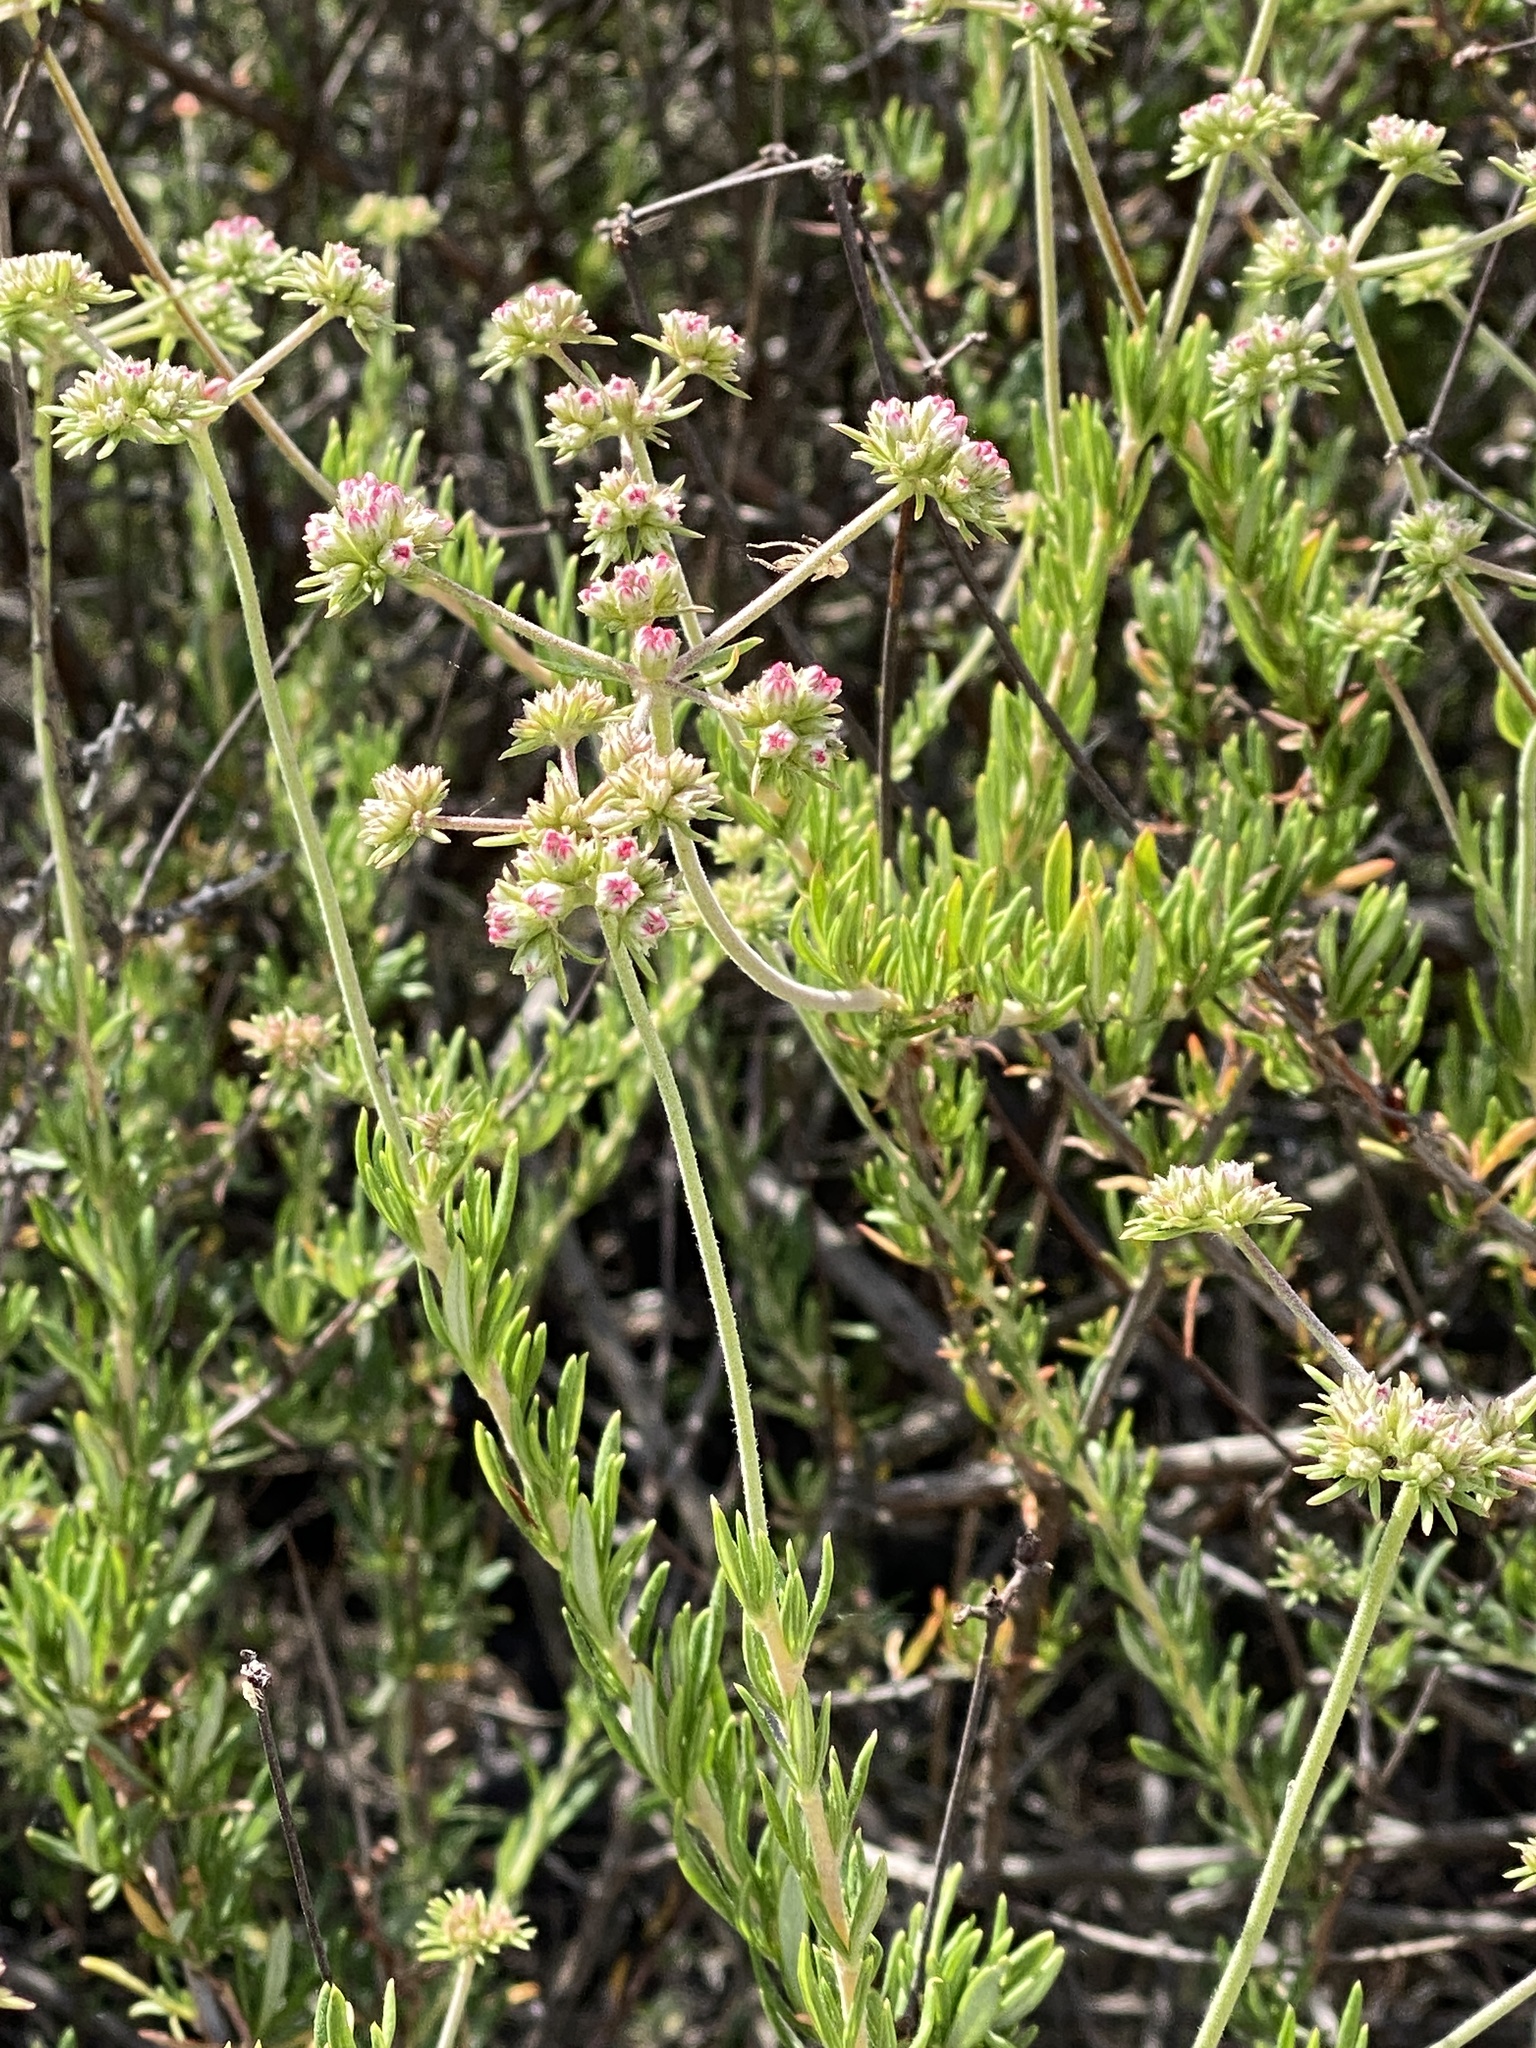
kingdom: Plantae
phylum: Tracheophyta
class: Magnoliopsida
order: Caryophyllales
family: Polygonaceae
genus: Eriogonum
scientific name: Eriogonum fasciculatum
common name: California wild buckwheat
